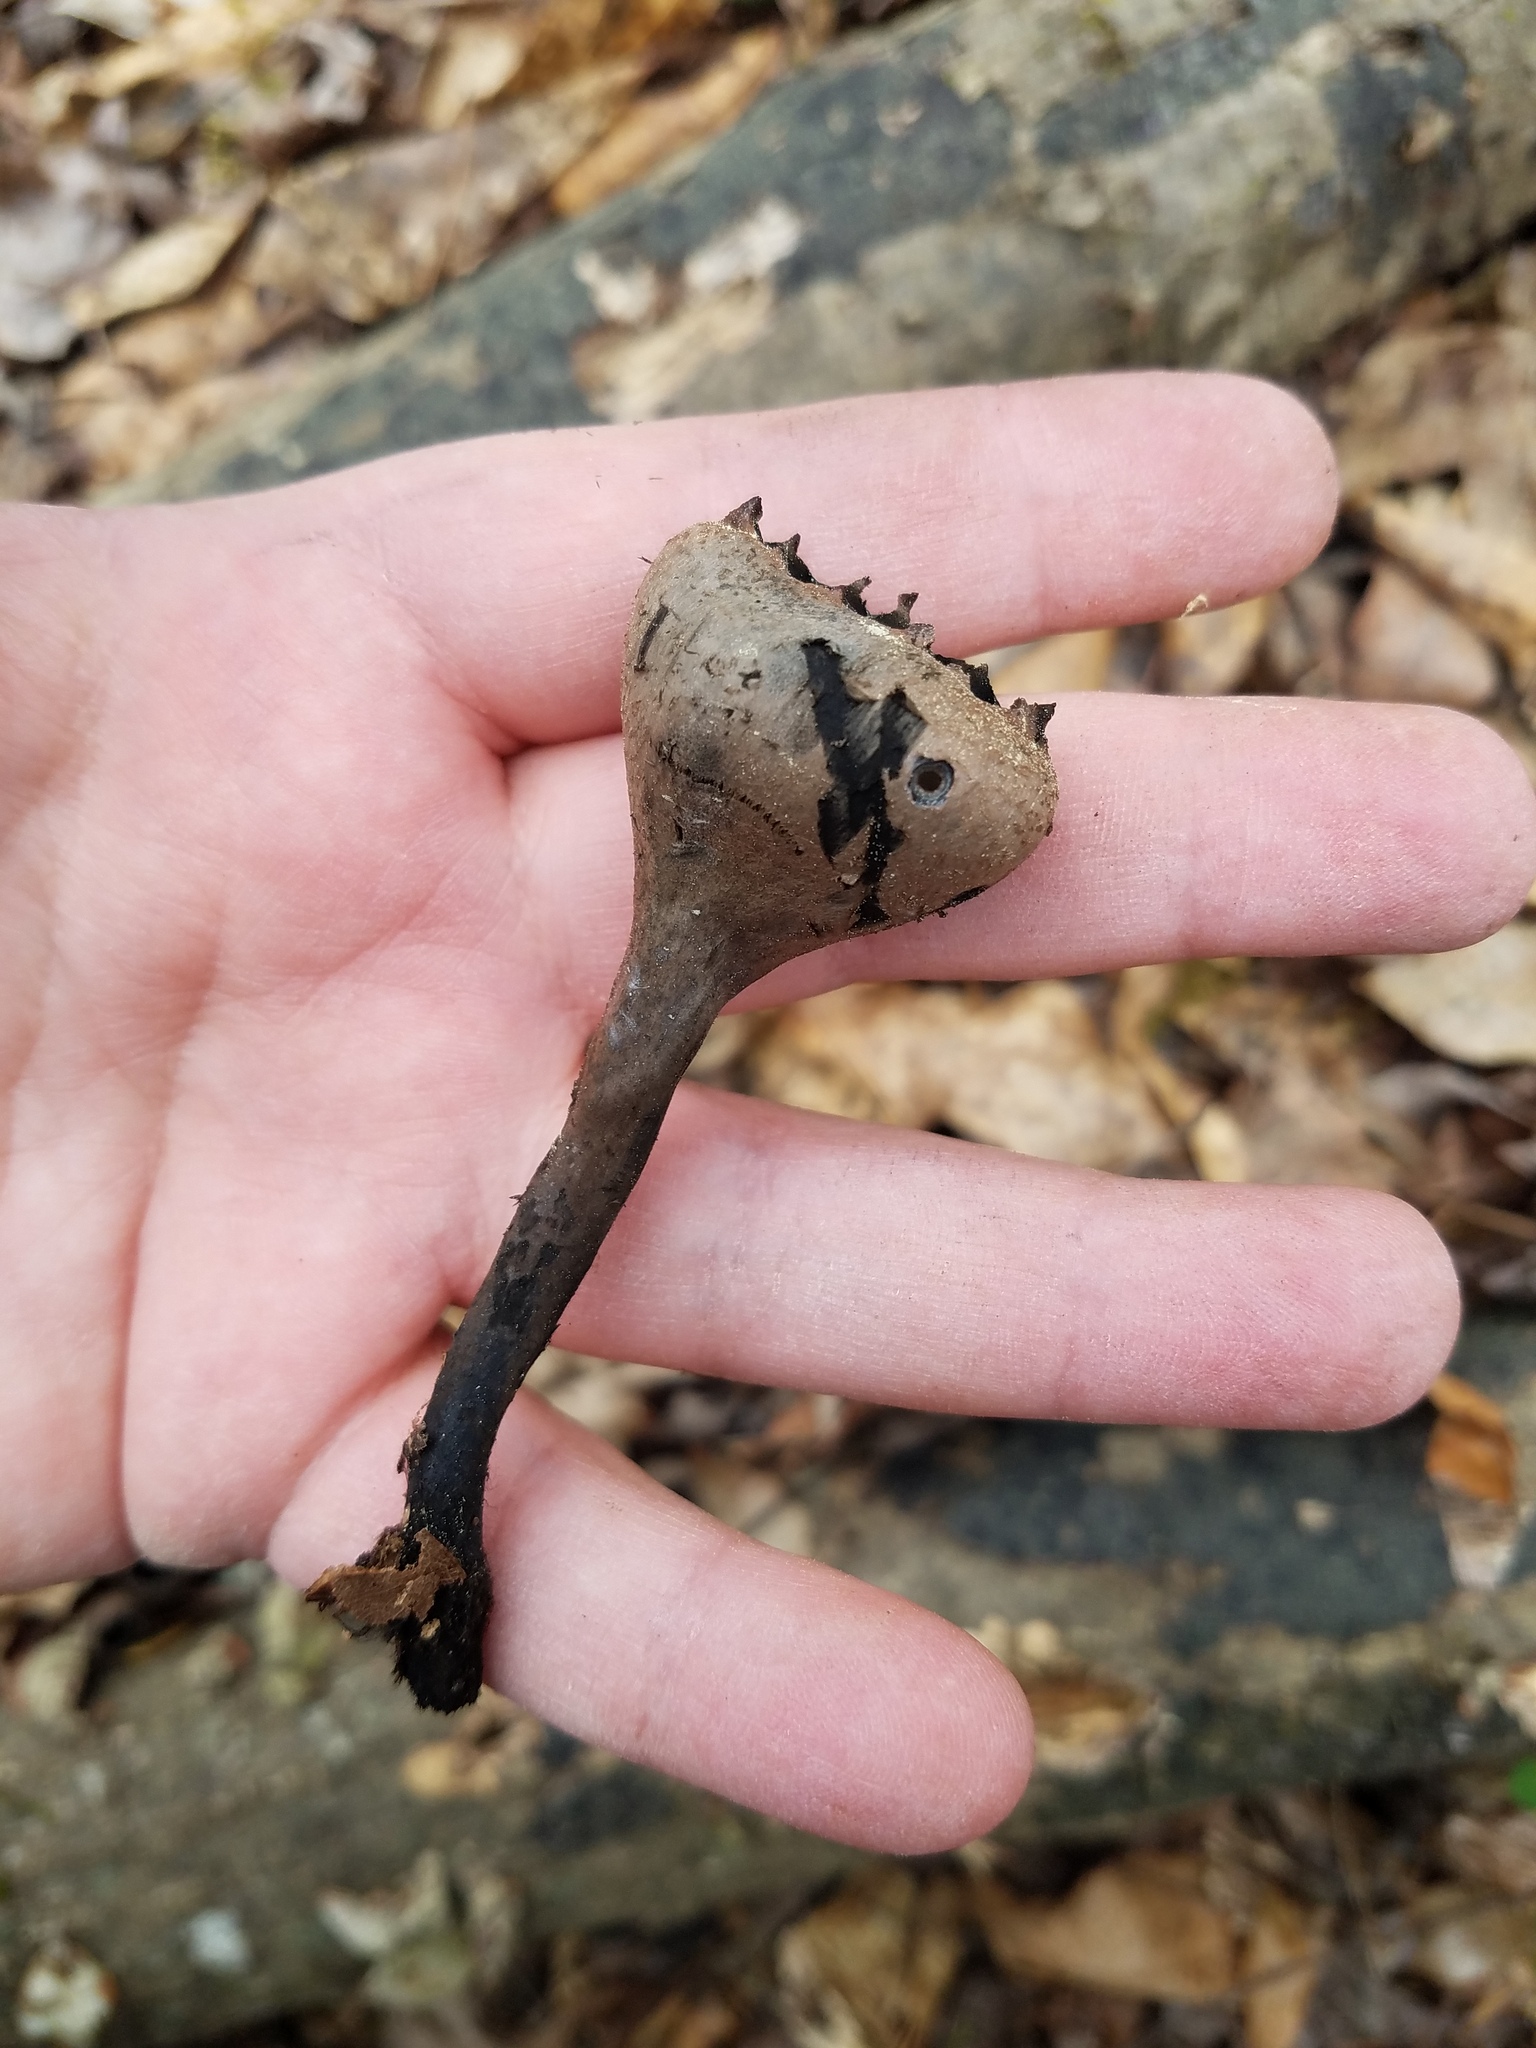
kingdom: Fungi
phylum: Ascomycota
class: Pezizomycetes
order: Pezizales
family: Sarcosomataceae
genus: Urnula
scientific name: Urnula craterium
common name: Devil's urn
